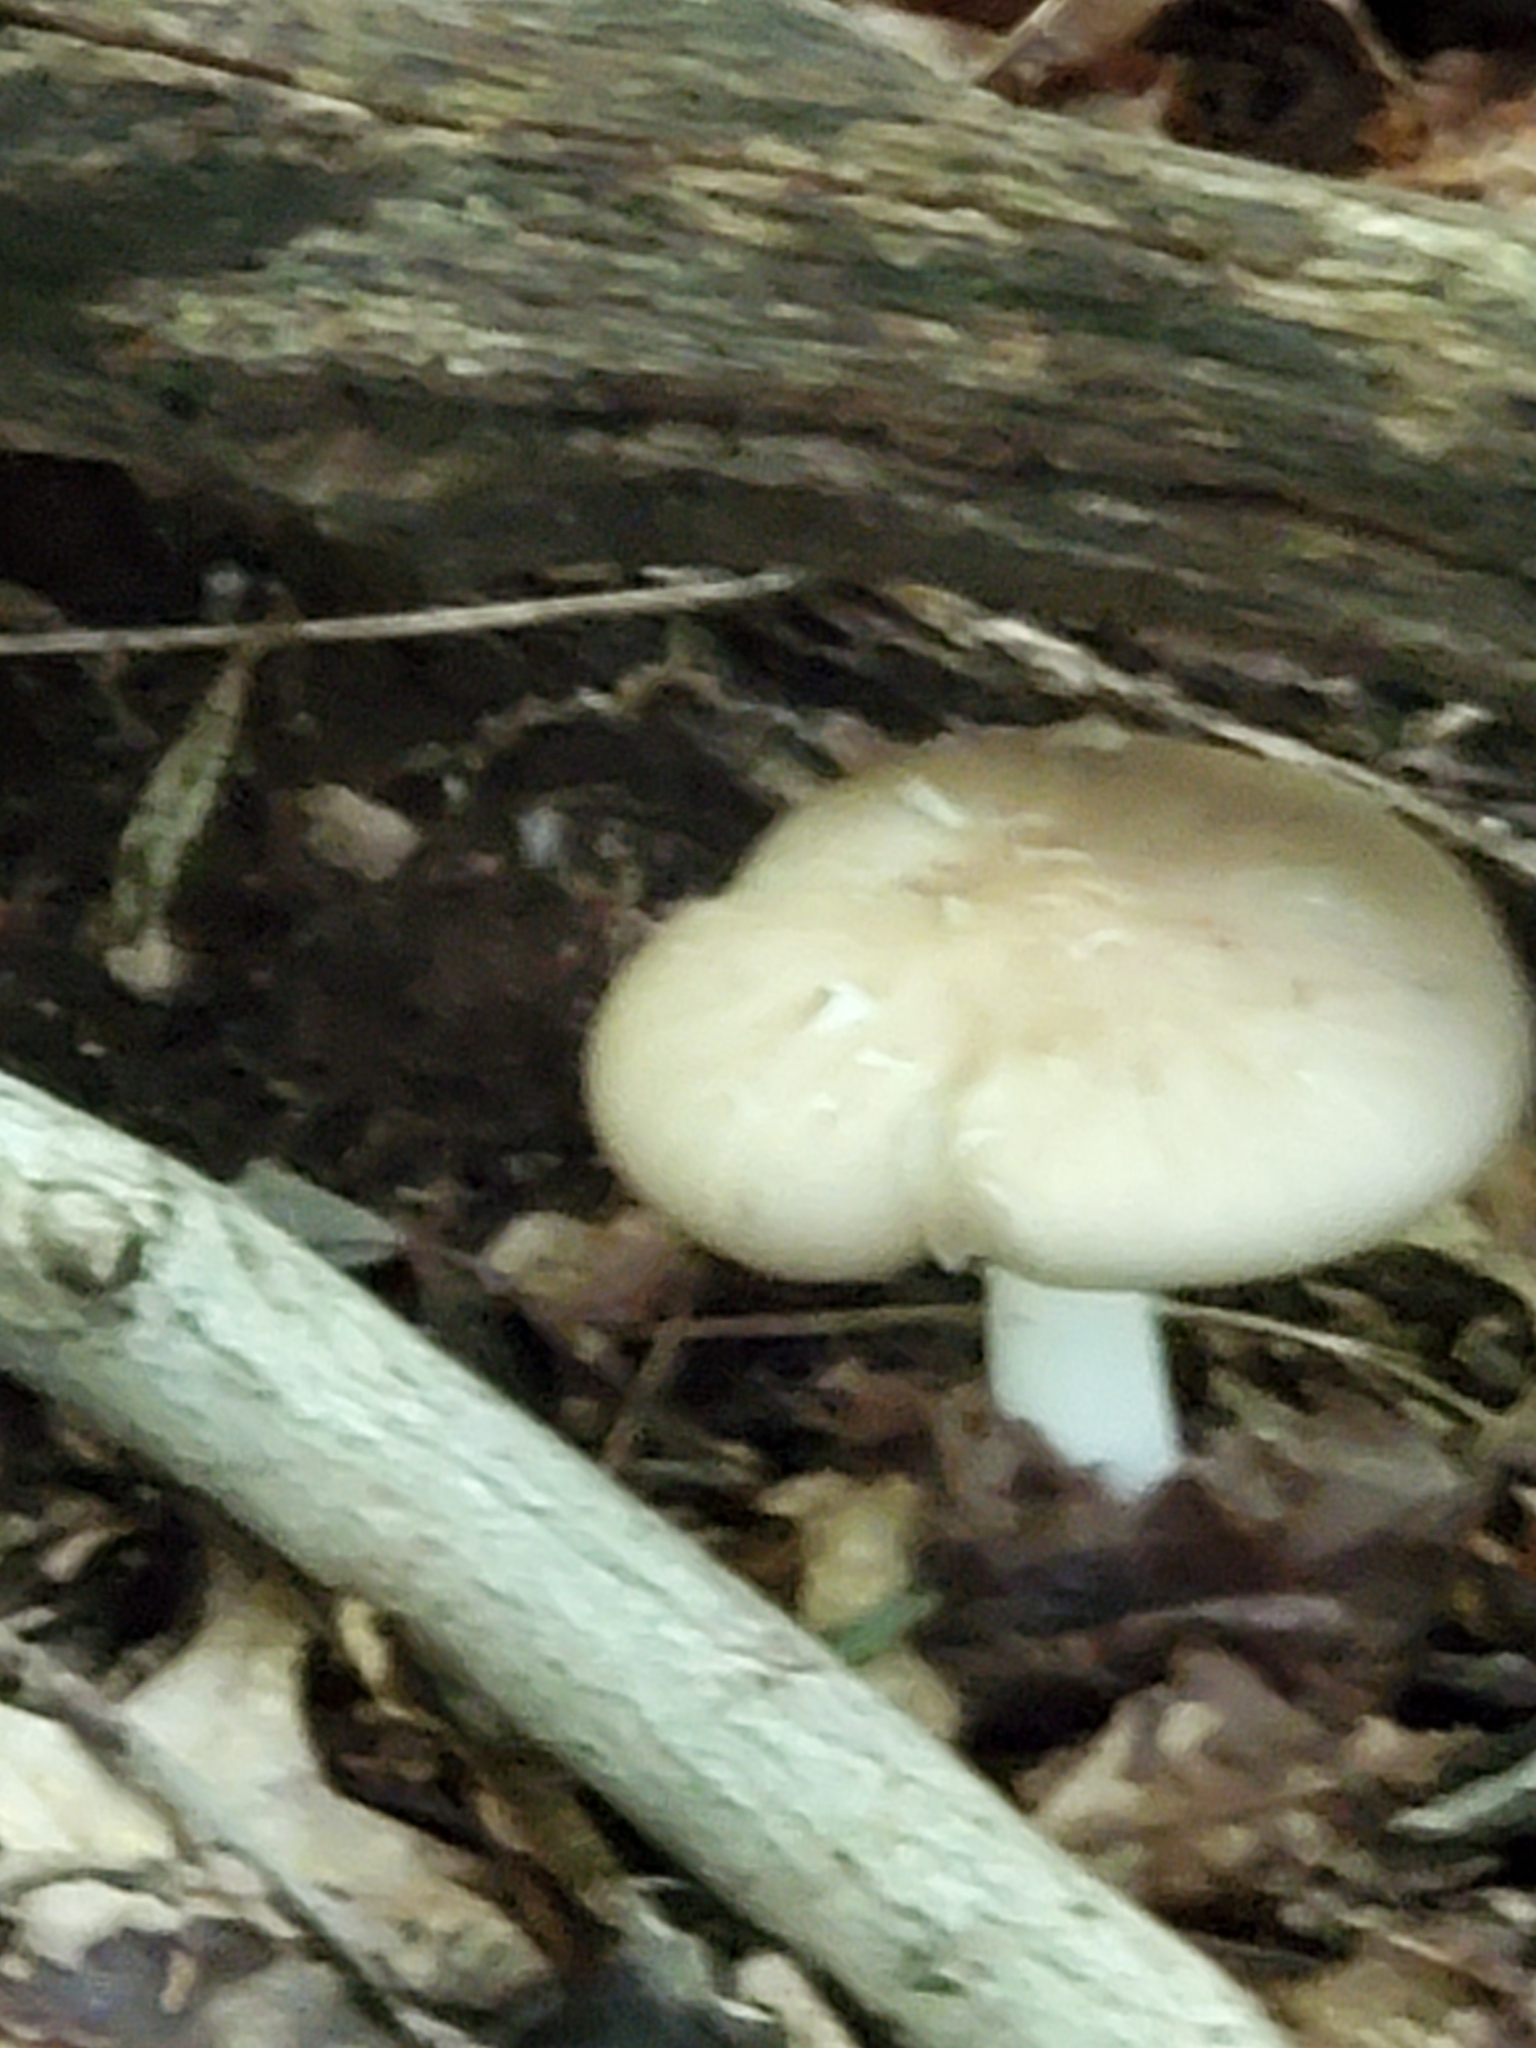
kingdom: Fungi
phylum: Basidiomycota
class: Agaricomycetes
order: Agaricales
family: Tricholomataceae
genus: Megacollybia
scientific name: Megacollybia rodmanii
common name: Eastern american platterful mushroom
